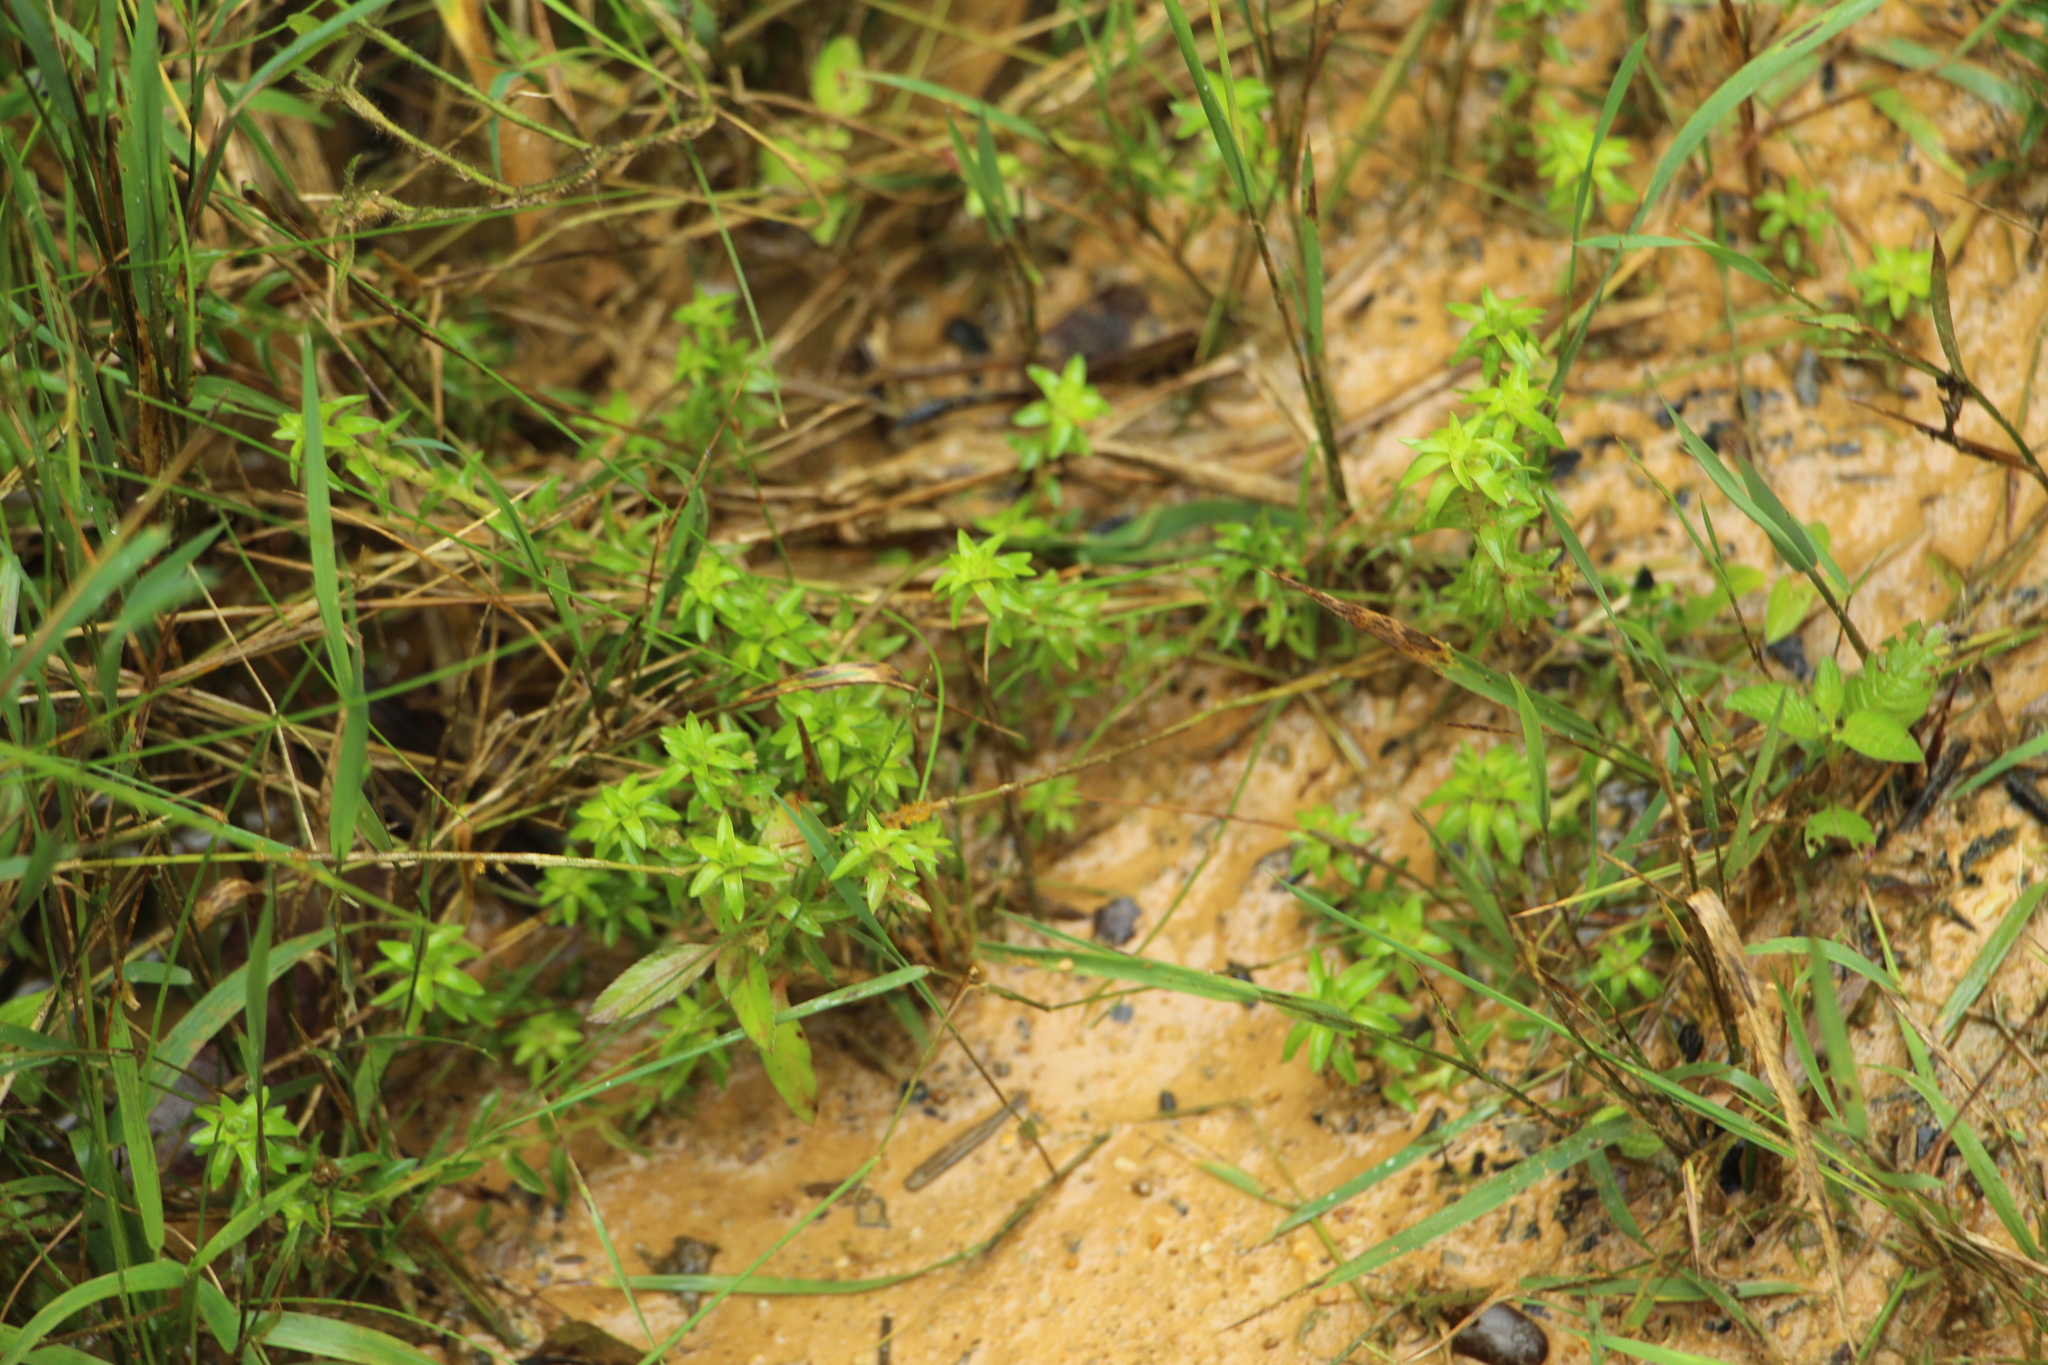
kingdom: Plantae
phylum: Tracheophyta
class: Liliopsida
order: Poales
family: Eriocaulaceae
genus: Paepalanthus
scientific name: Paepalanthus fluviatilis
